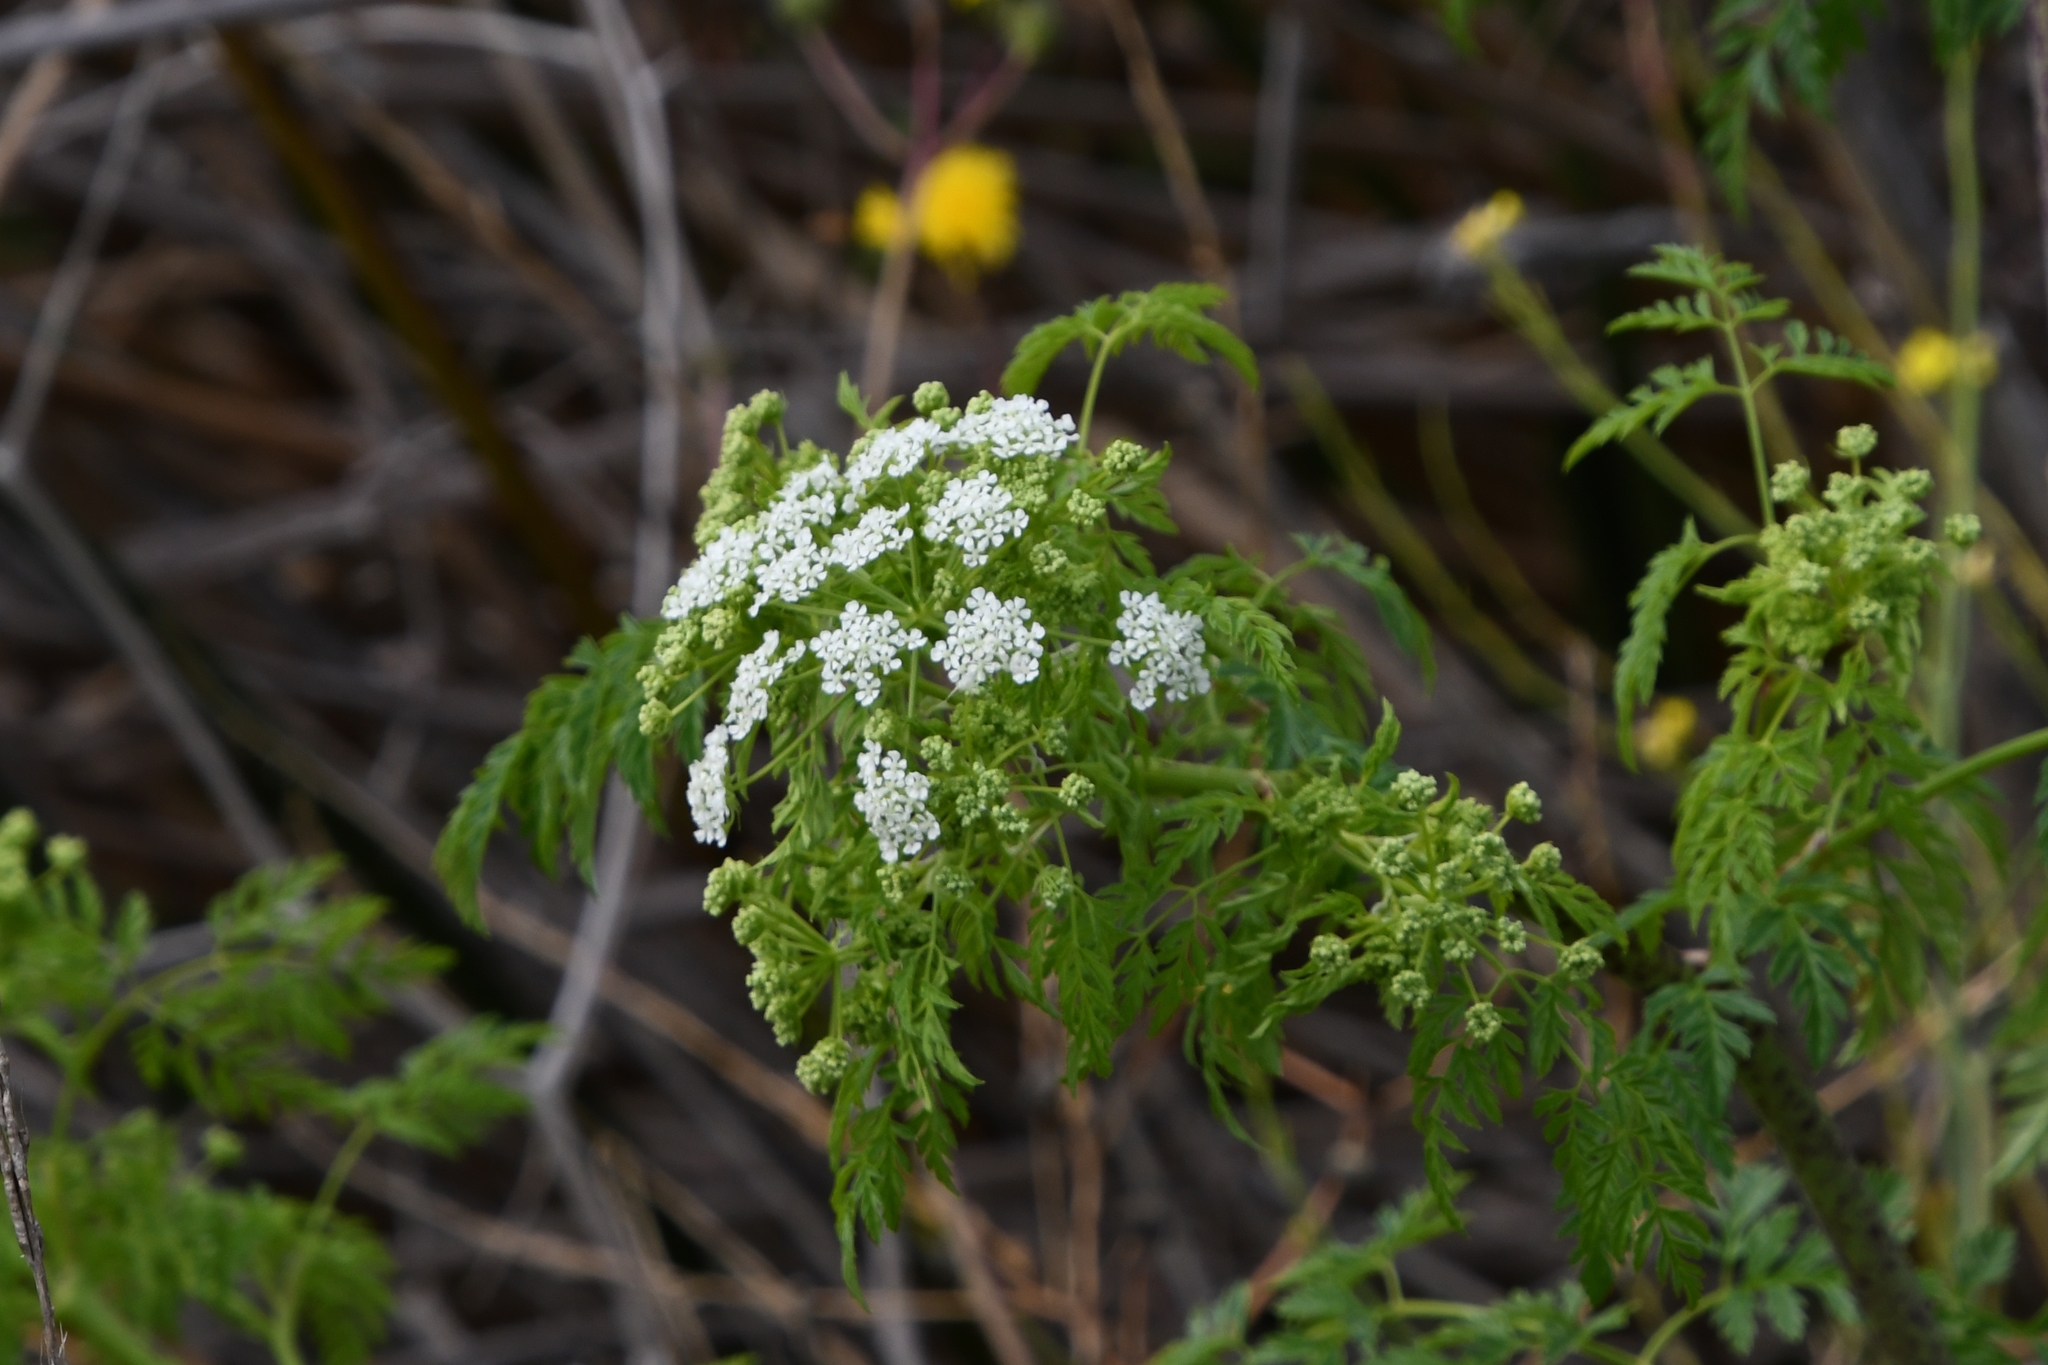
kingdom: Plantae
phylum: Tracheophyta
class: Magnoliopsida
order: Apiales
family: Apiaceae
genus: Conium
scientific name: Conium maculatum
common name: Hemlock
